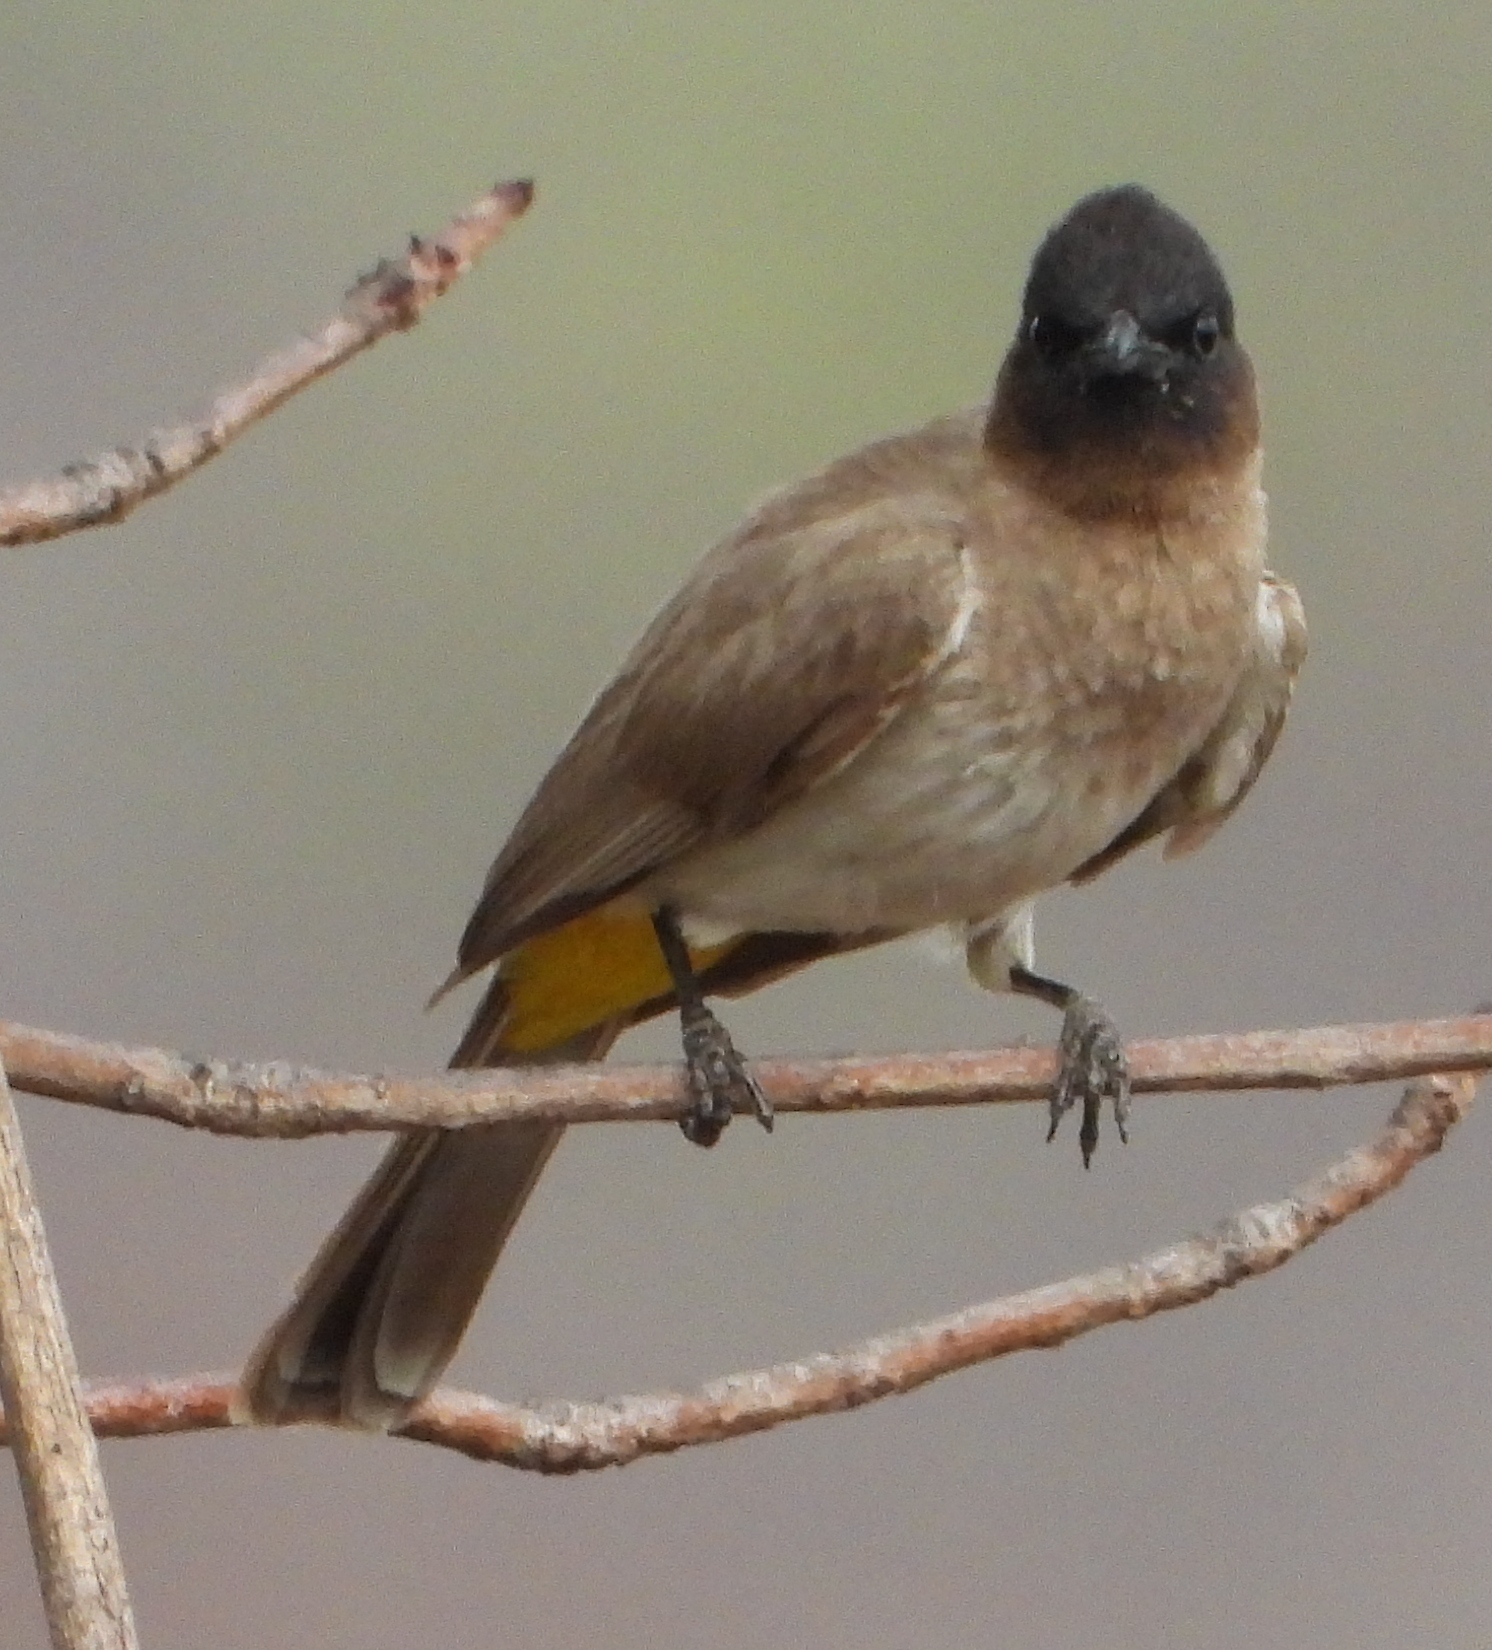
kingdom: Animalia
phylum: Chordata
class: Aves
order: Passeriformes
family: Pycnonotidae
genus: Pycnonotus
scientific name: Pycnonotus barbatus
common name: Common bulbul
